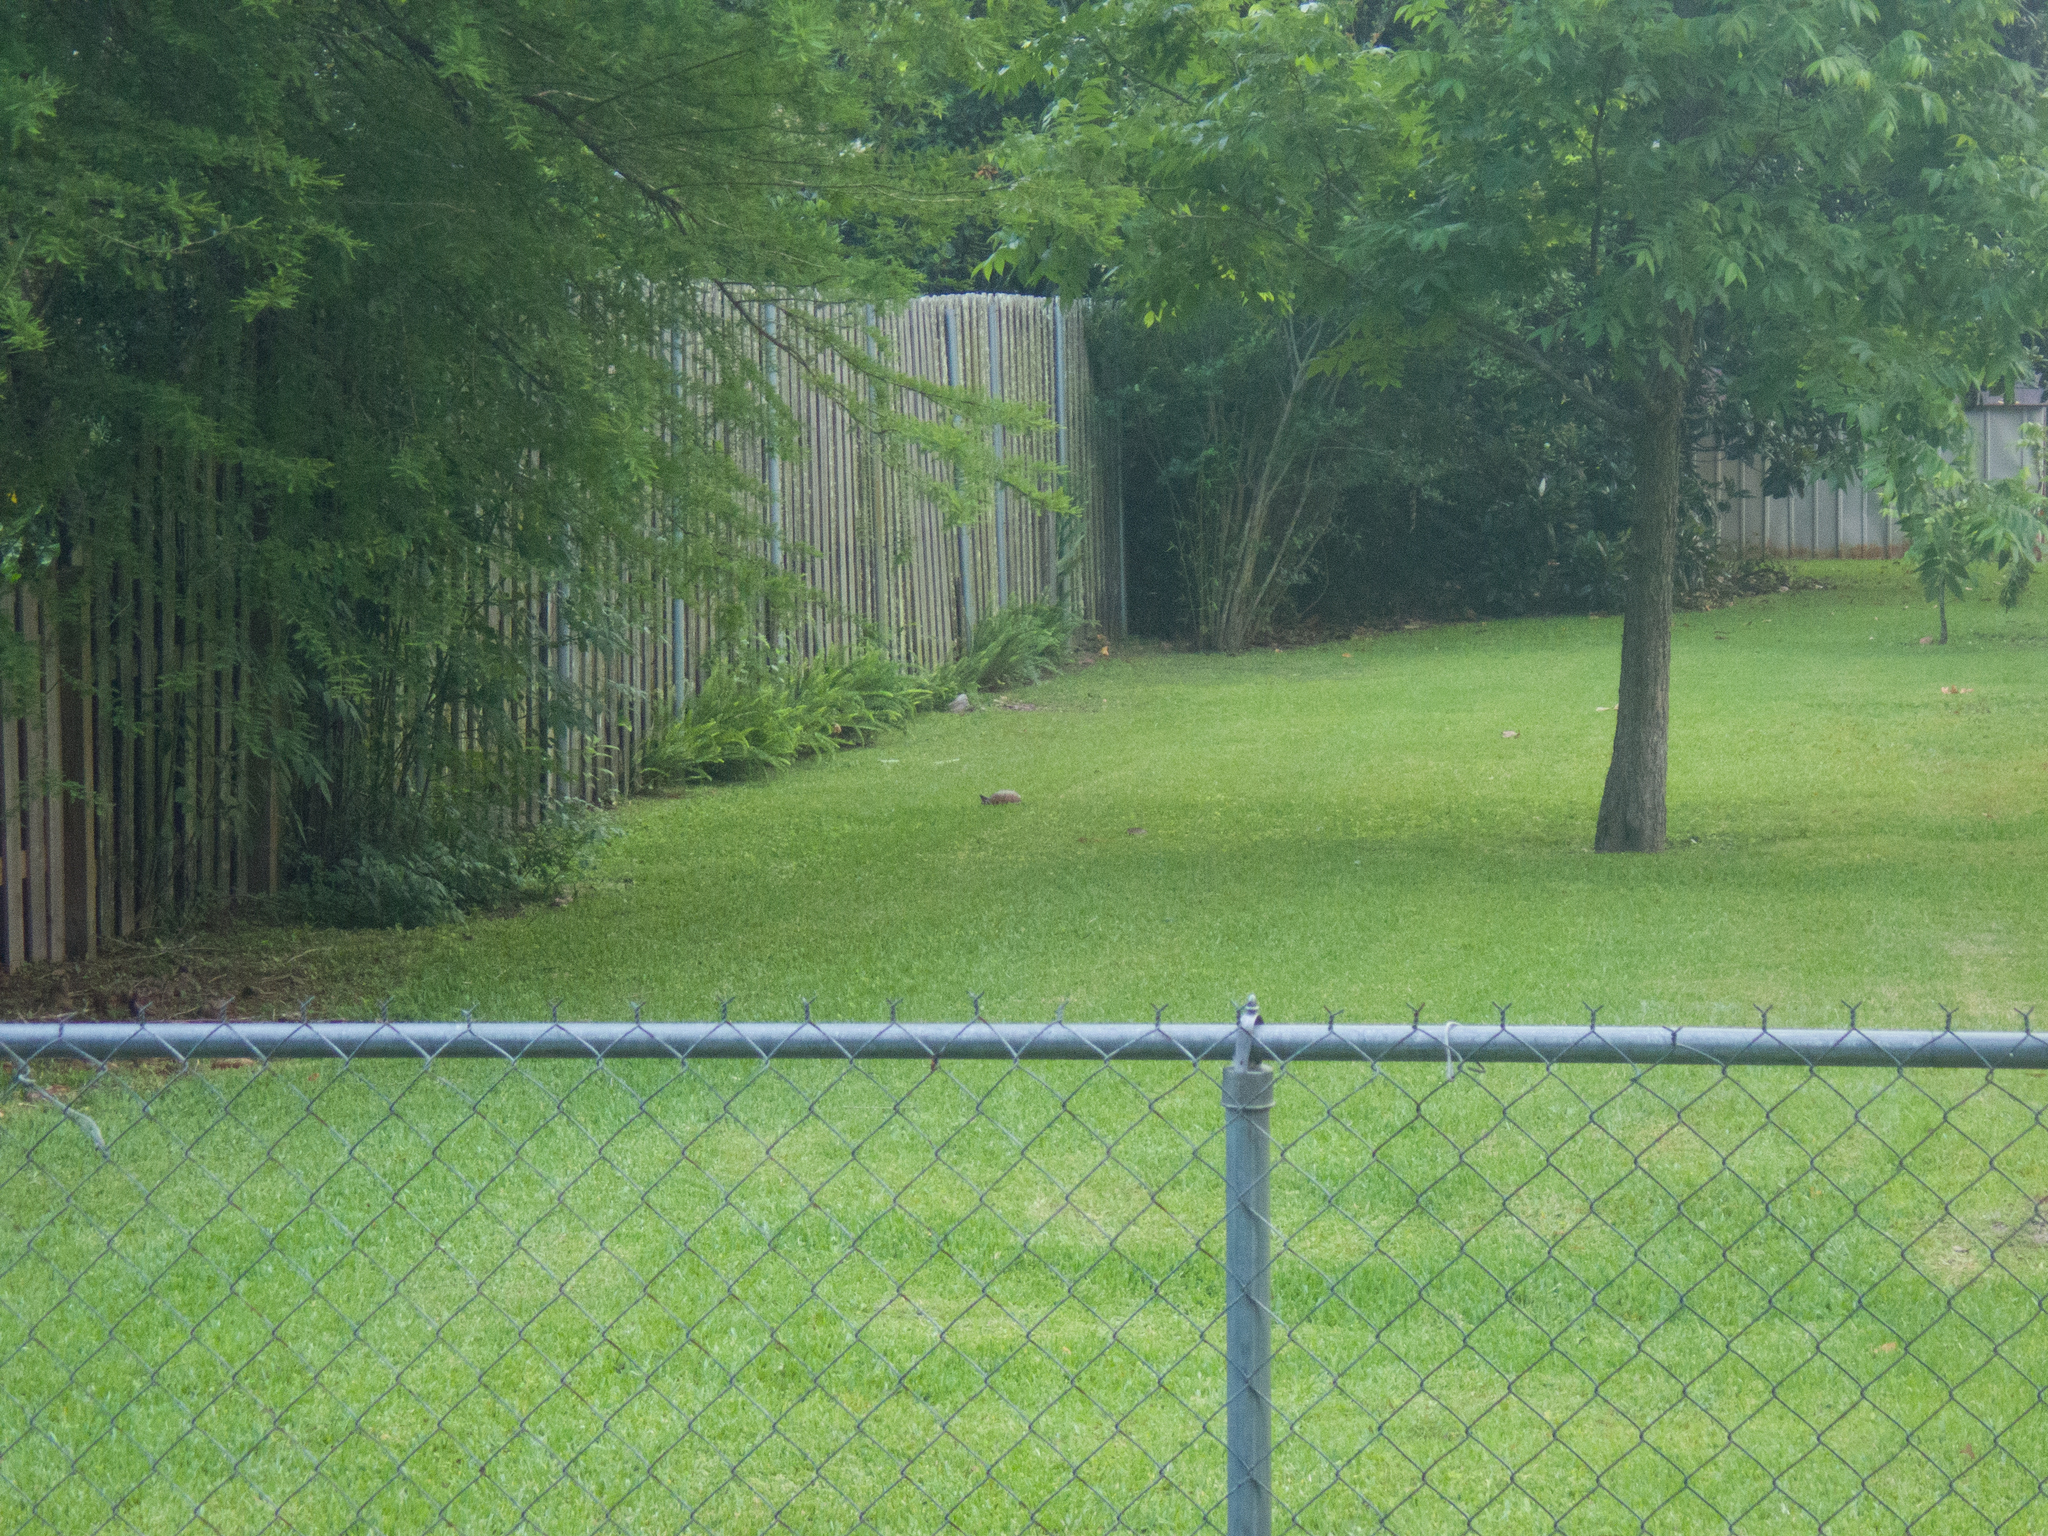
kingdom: Animalia
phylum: Chordata
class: Testudines
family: Emydidae
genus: Terrapene
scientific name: Terrapene carolina
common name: Common box turtle
